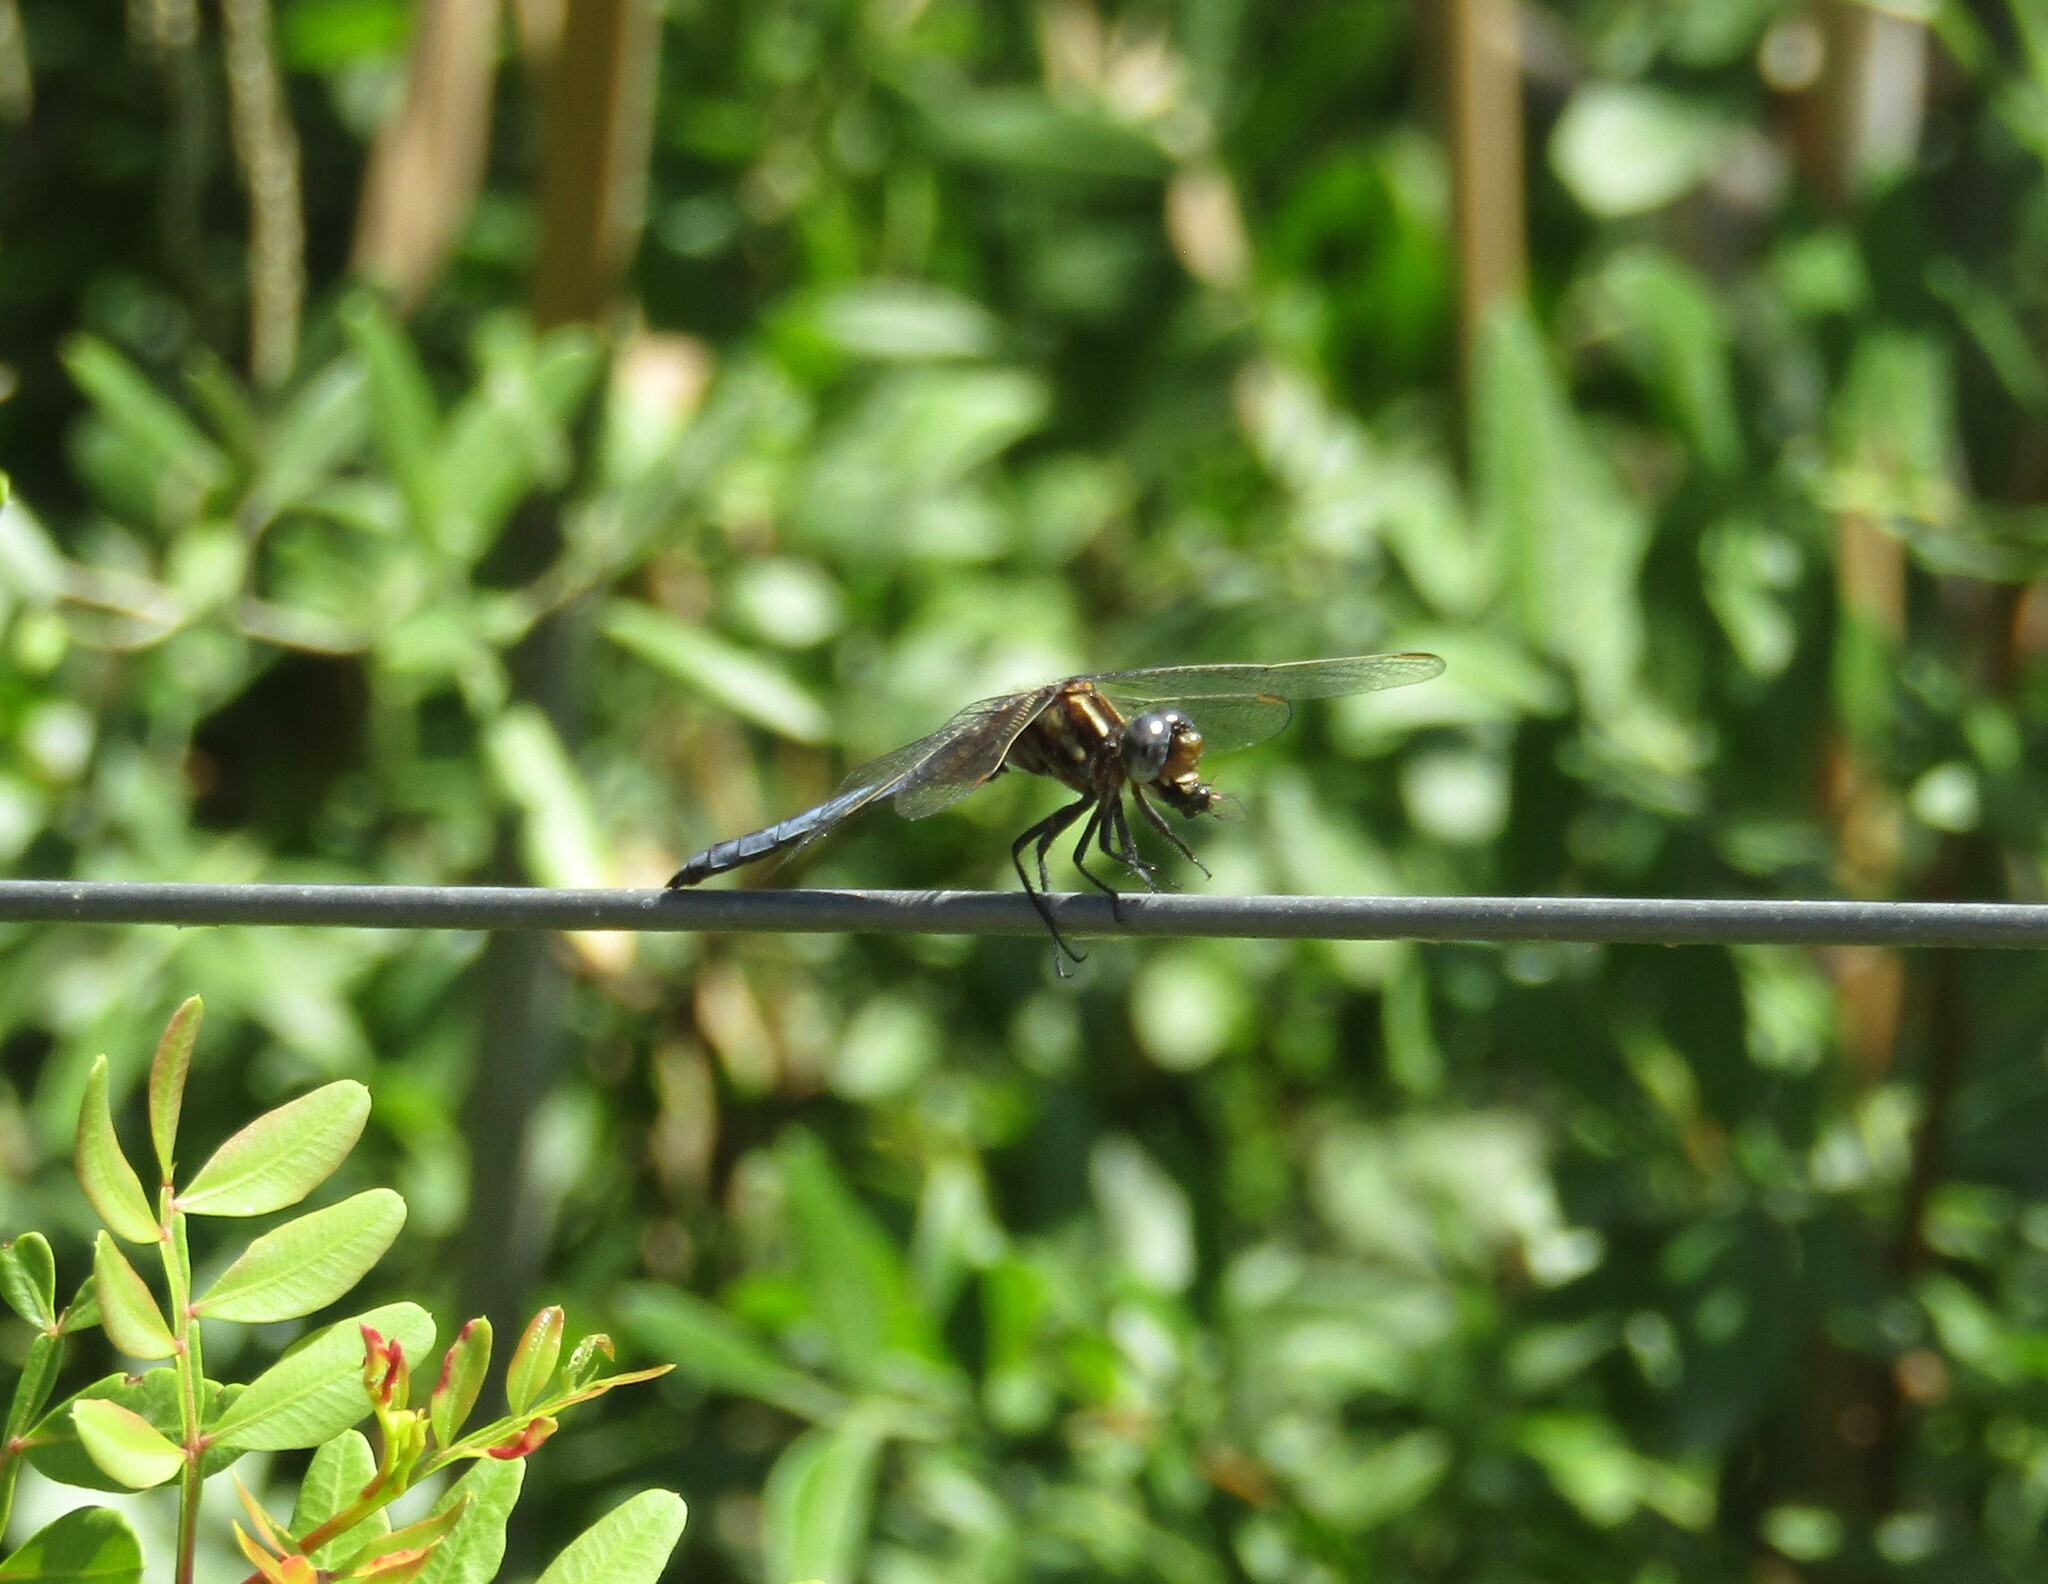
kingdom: Animalia
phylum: Arthropoda
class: Insecta
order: Odonata
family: Libellulidae
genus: Orthetrum
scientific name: Orthetrum coerulescens
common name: Keeled skimmer
